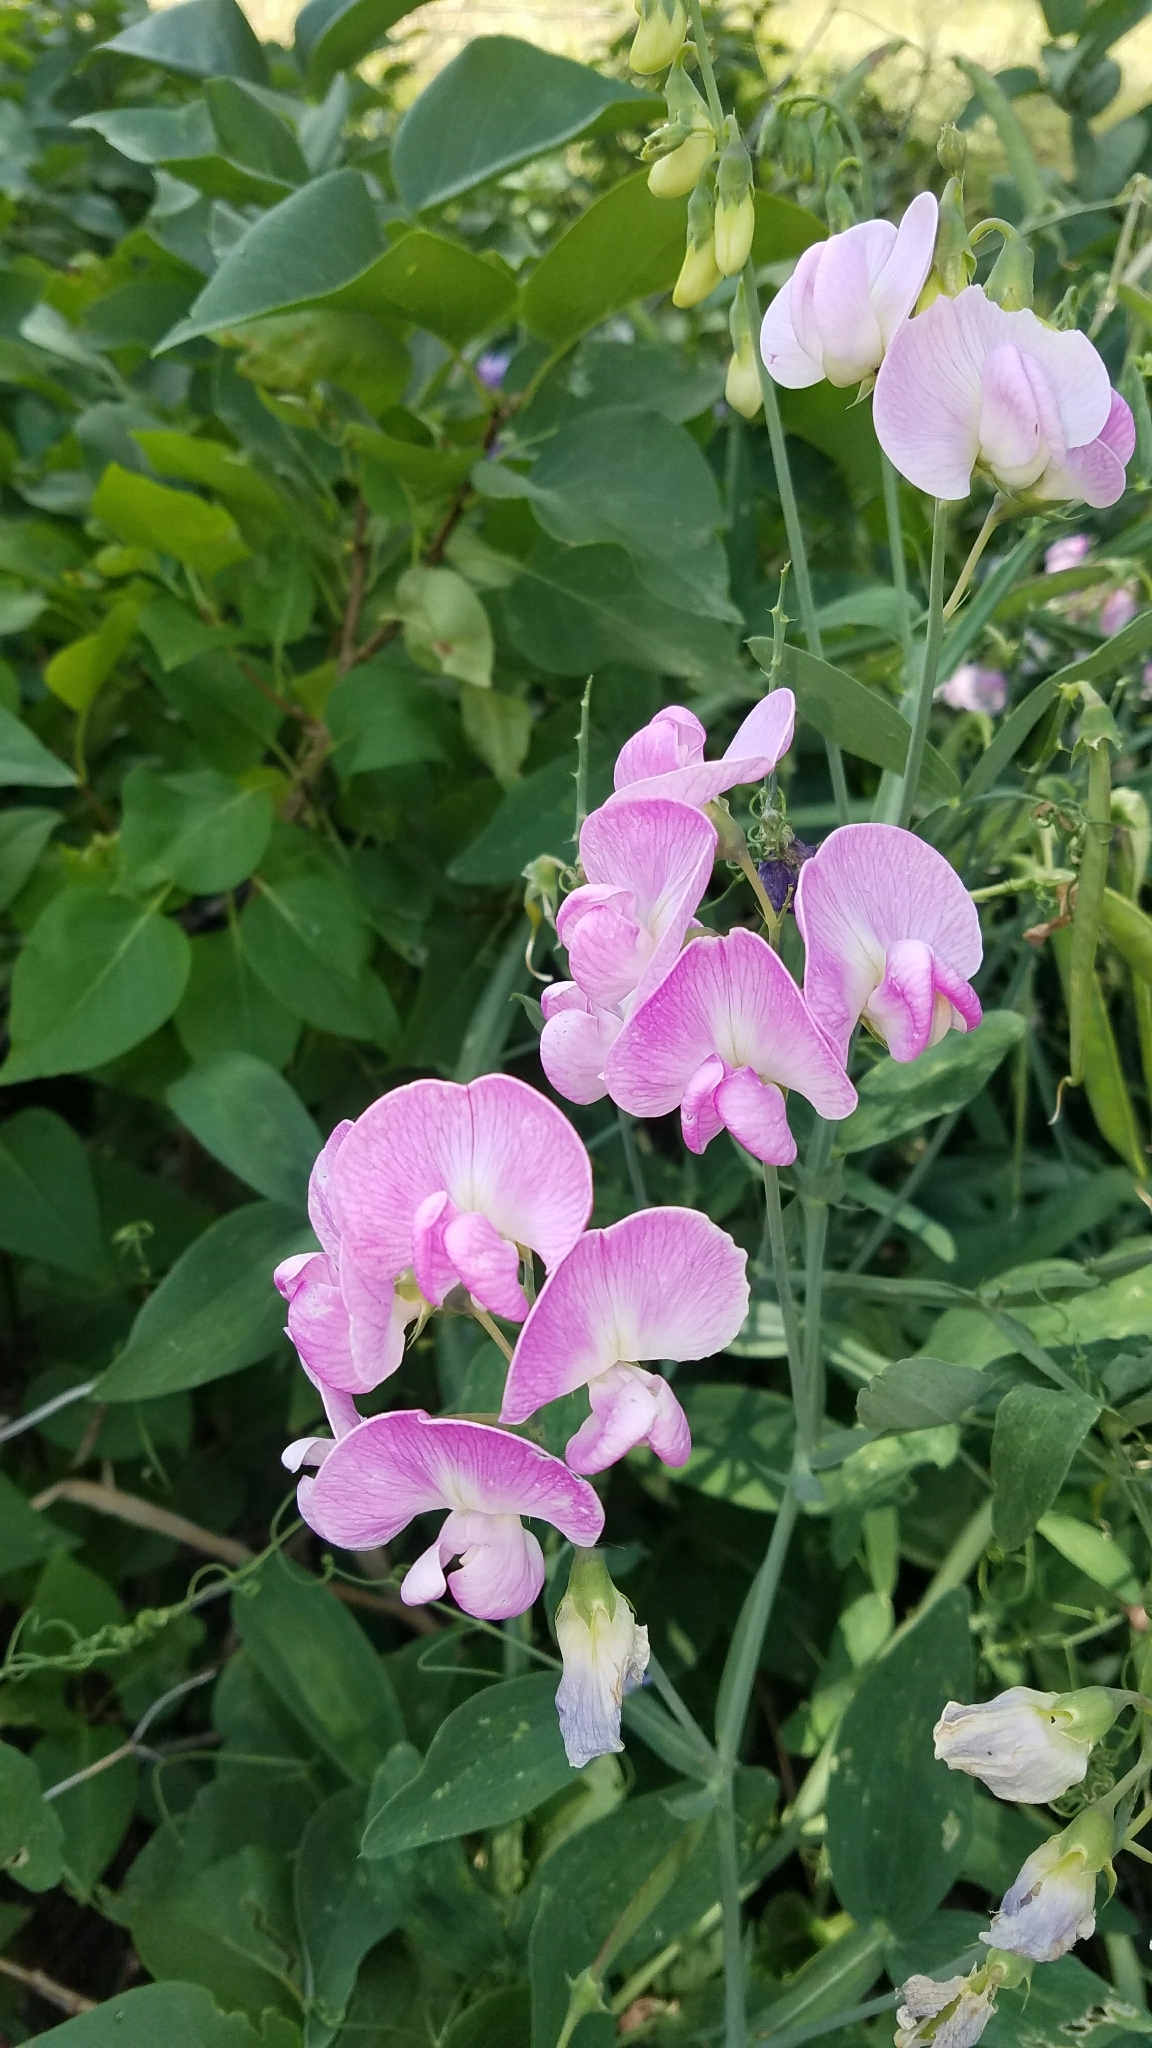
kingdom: Plantae
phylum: Tracheophyta
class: Magnoliopsida
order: Fabales
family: Fabaceae
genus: Lathyrus
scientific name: Lathyrus latifolius
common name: Perennial pea
